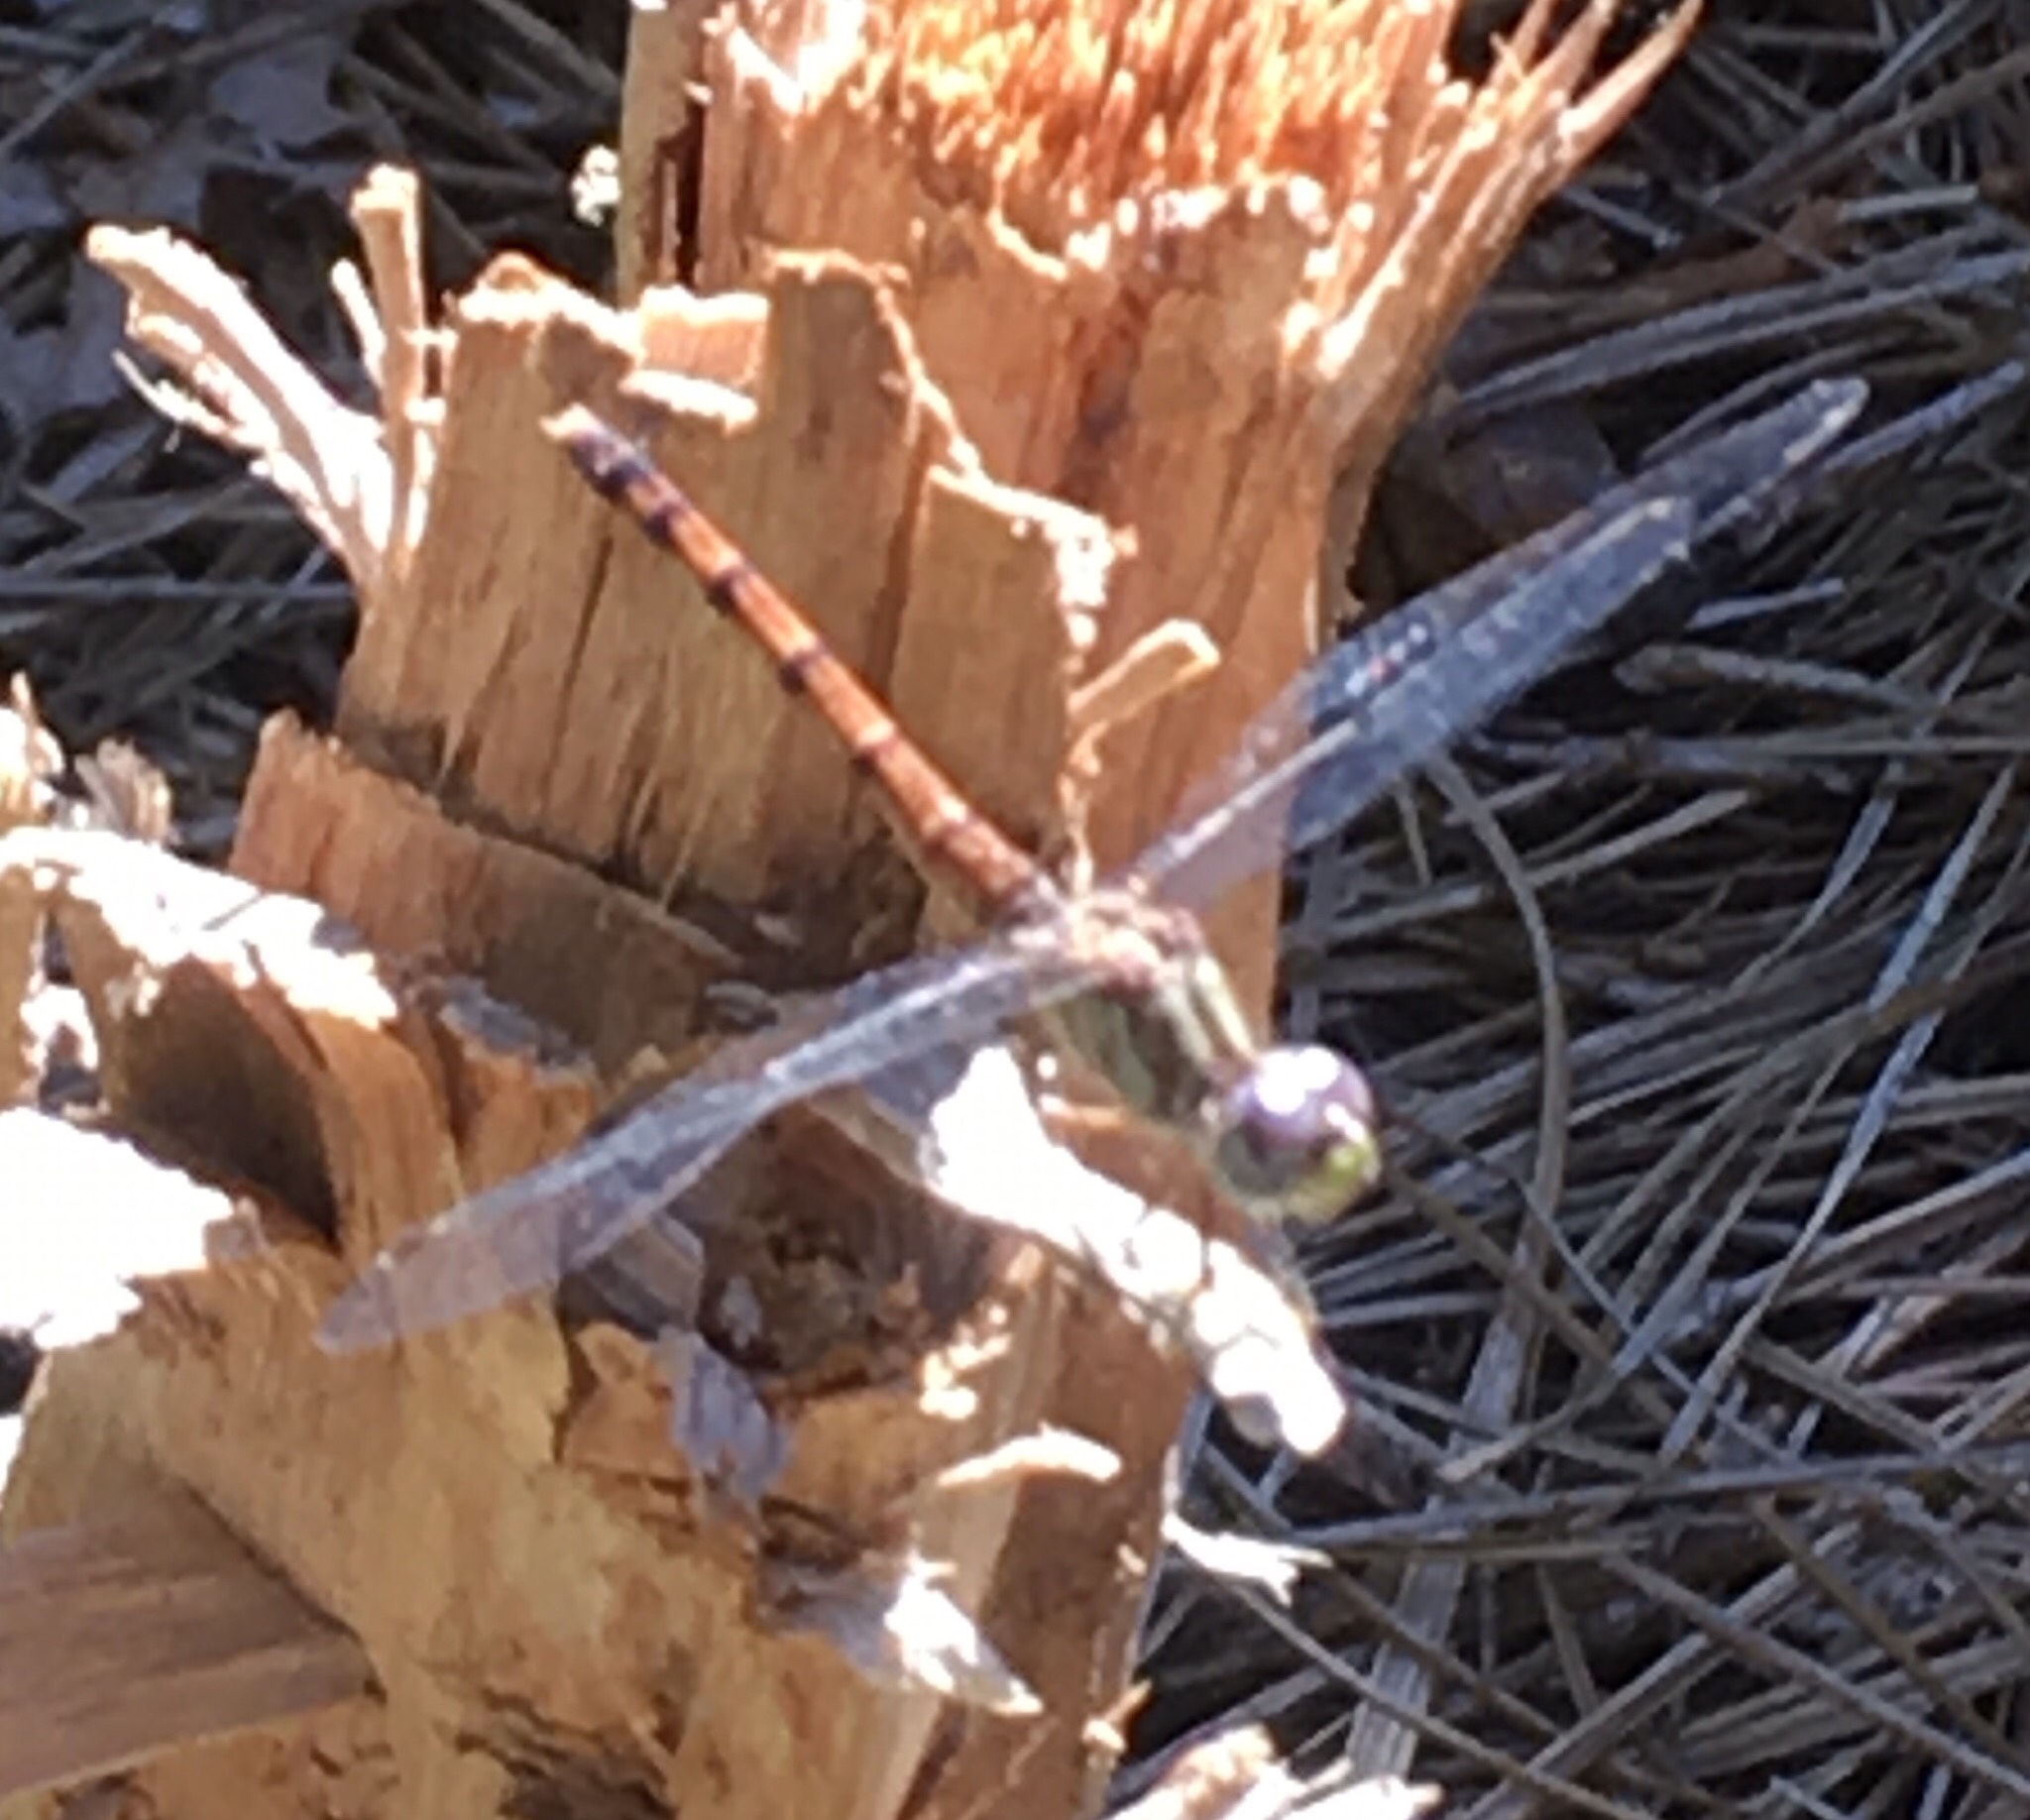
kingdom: Animalia
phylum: Arthropoda
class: Insecta
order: Odonata
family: Libellulidae
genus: Sympetrum
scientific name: Sympetrum ambiguum
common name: Blue-faced meadowhawk
